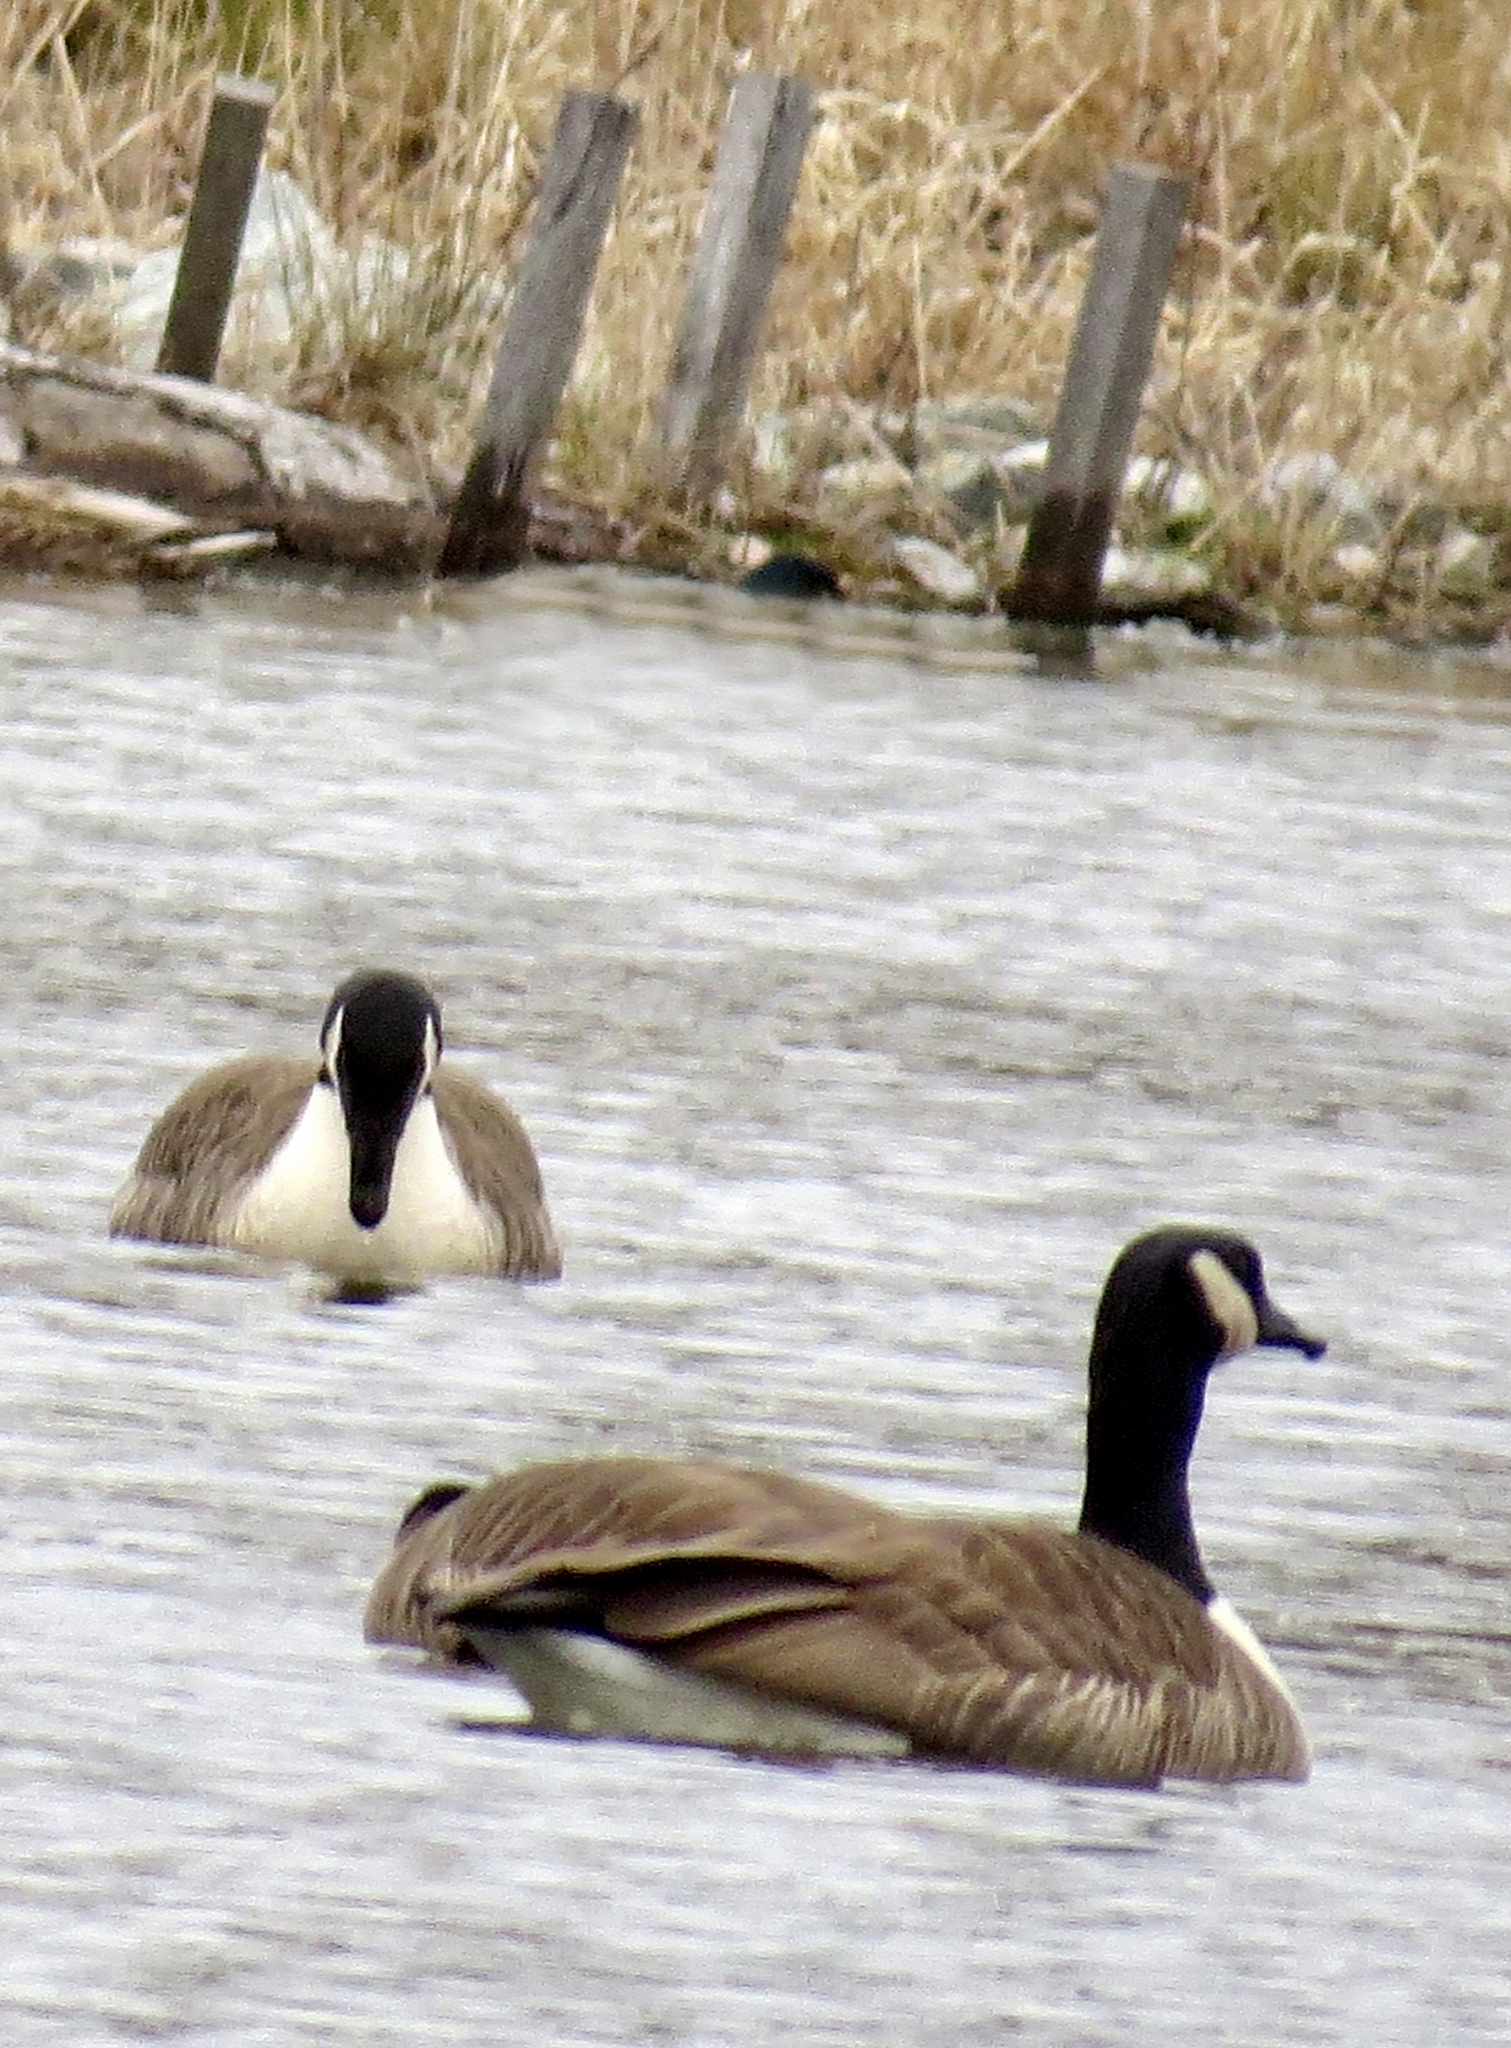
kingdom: Animalia
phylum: Chordata
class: Aves
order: Anseriformes
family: Anatidae
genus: Branta
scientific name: Branta canadensis
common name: Canada goose
